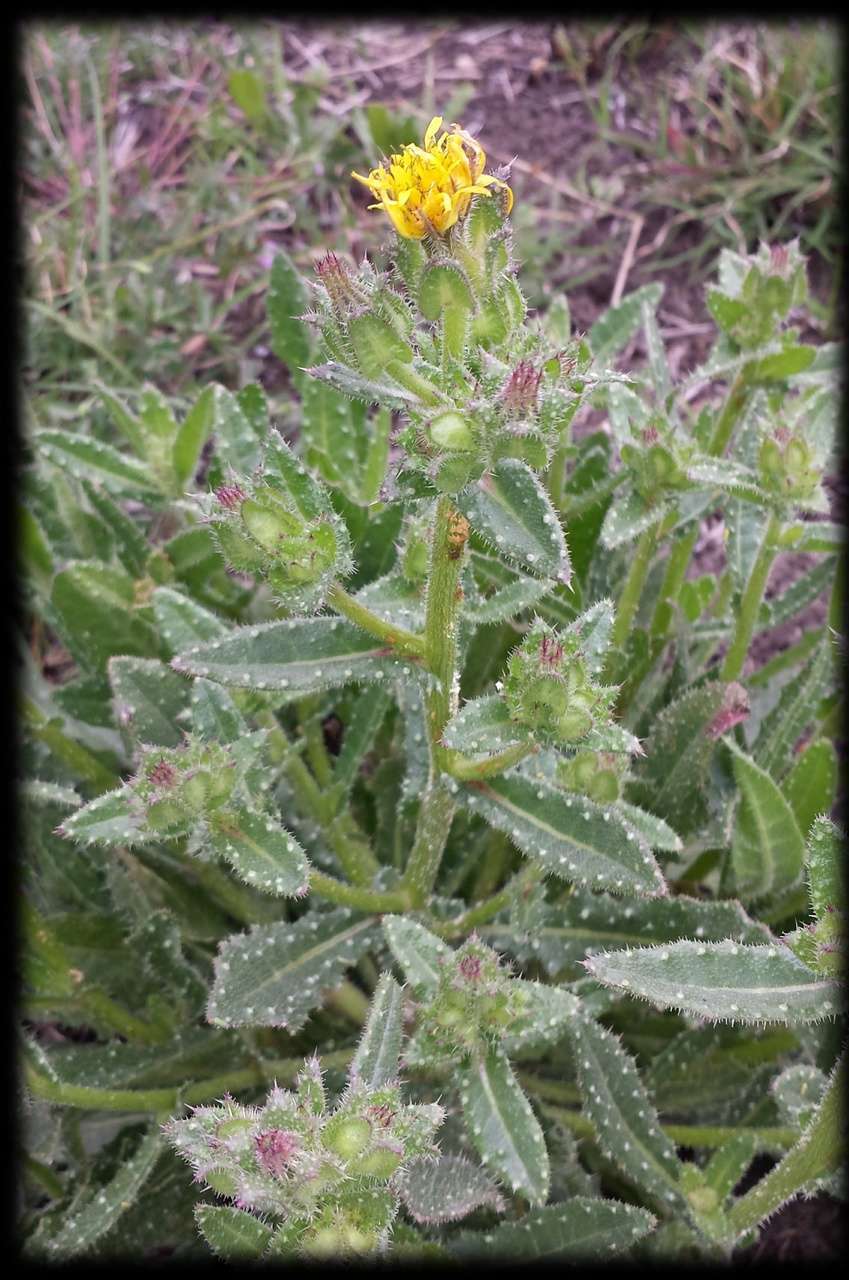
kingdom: Plantae
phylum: Tracheophyta
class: Magnoliopsida
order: Asterales
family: Asteraceae
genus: Helminthotheca
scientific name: Helminthotheca echioides
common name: Ox-tongue
